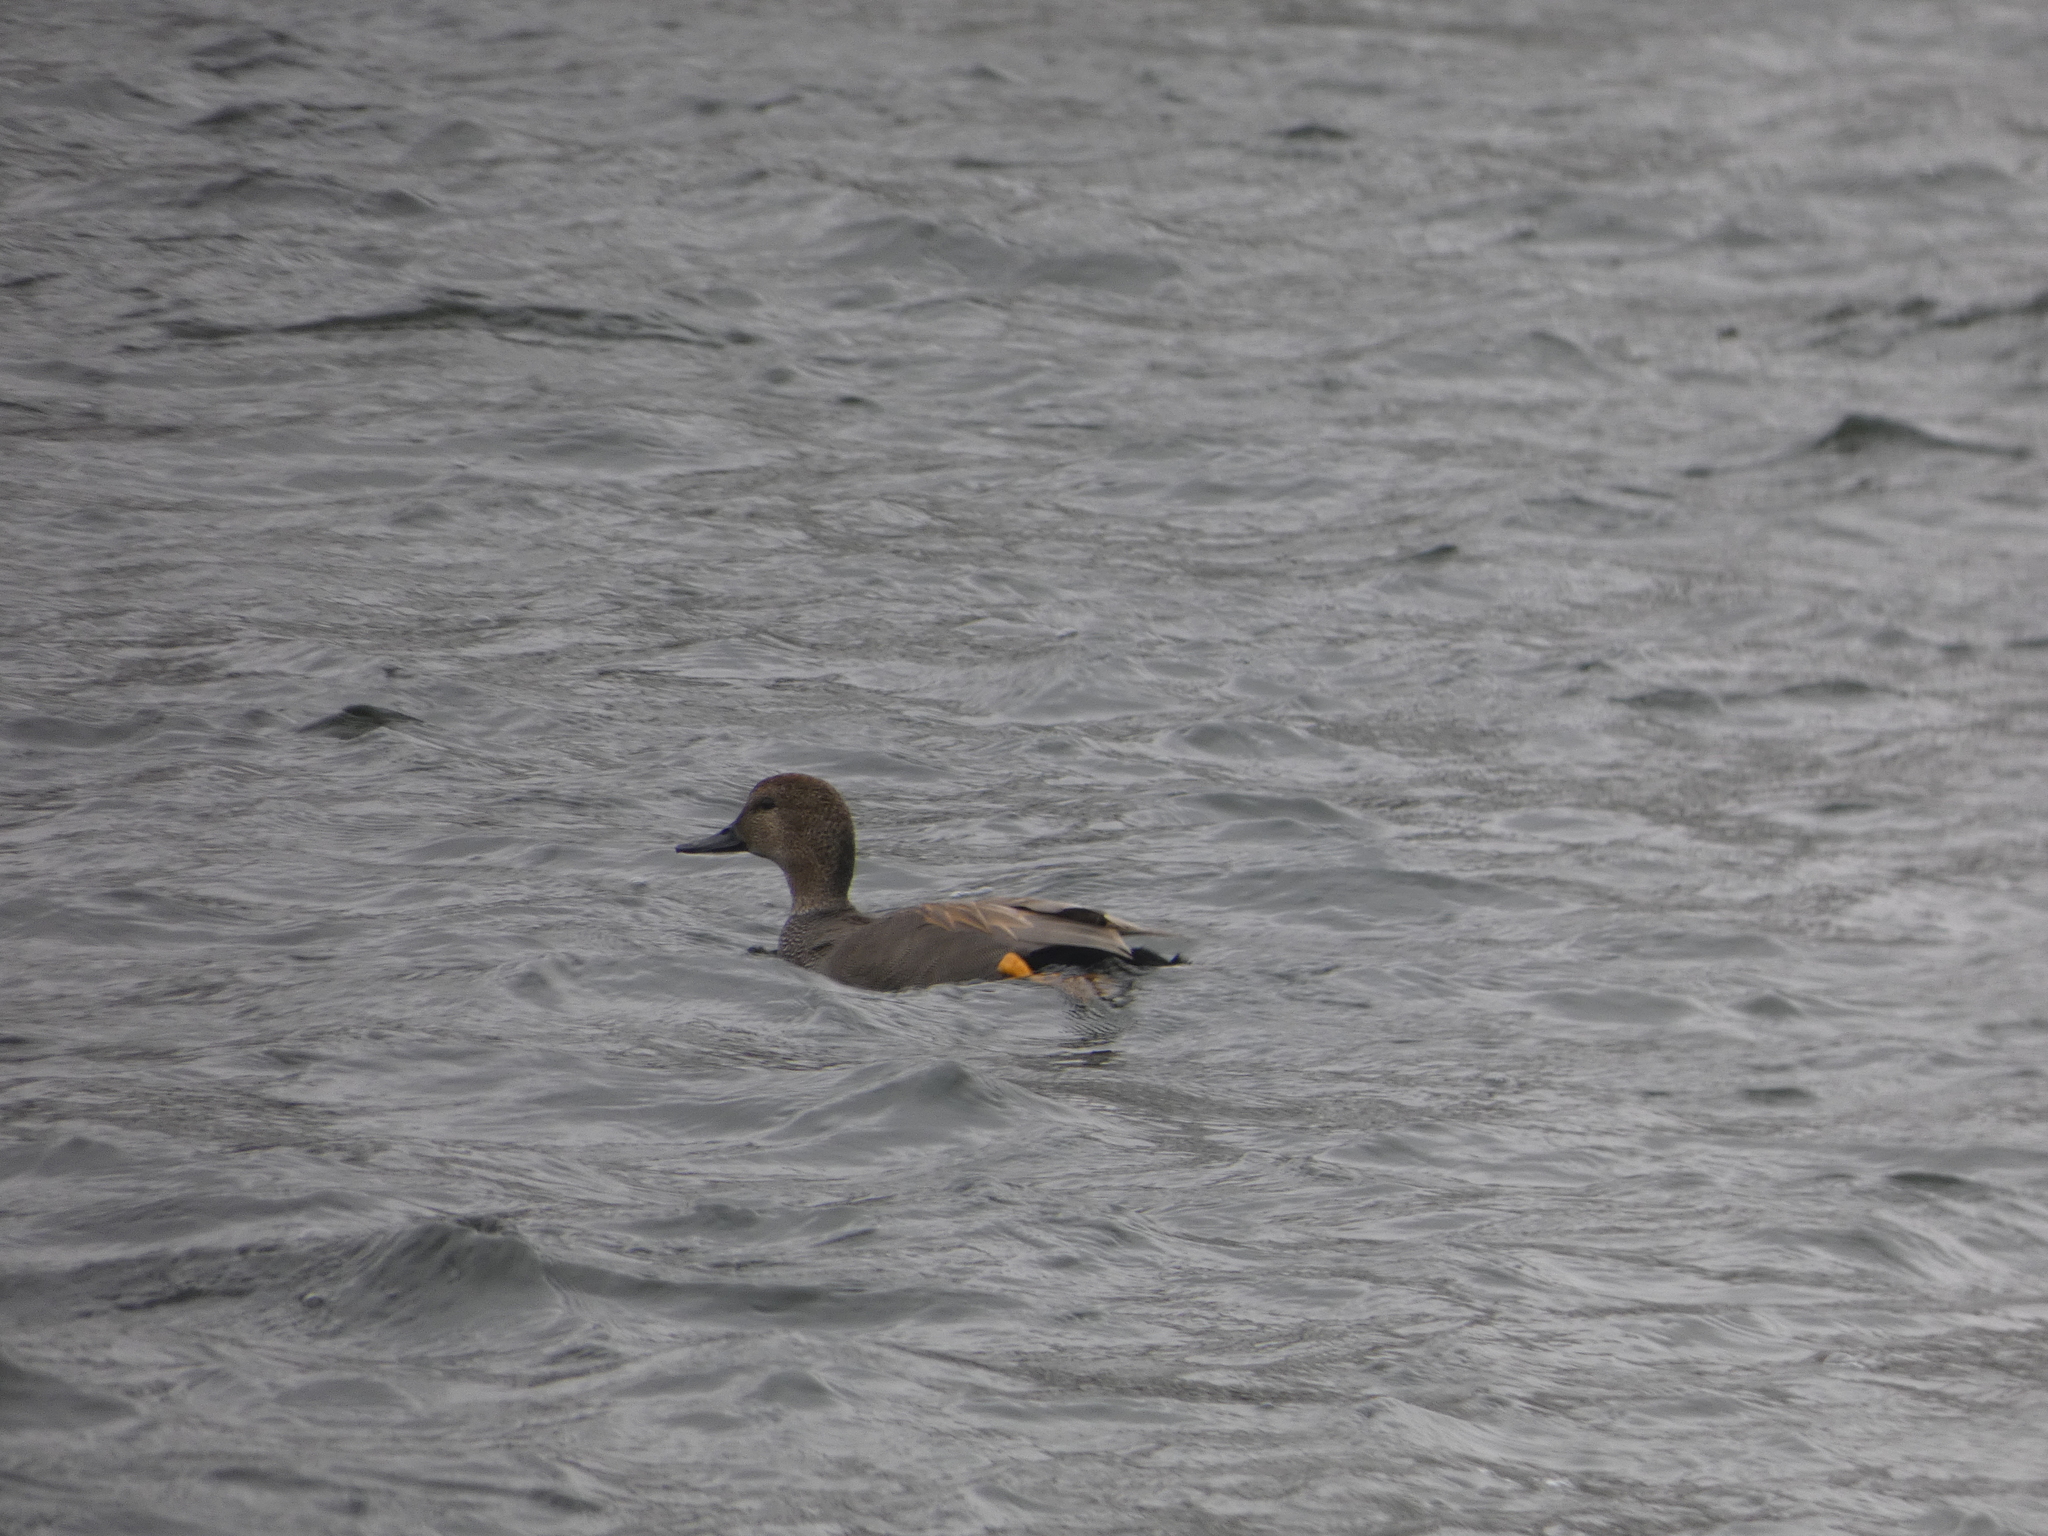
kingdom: Animalia
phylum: Chordata
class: Aves
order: Anseriformes
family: Anatidae
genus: Mareca
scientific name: Mareca strepera
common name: Gadwall
